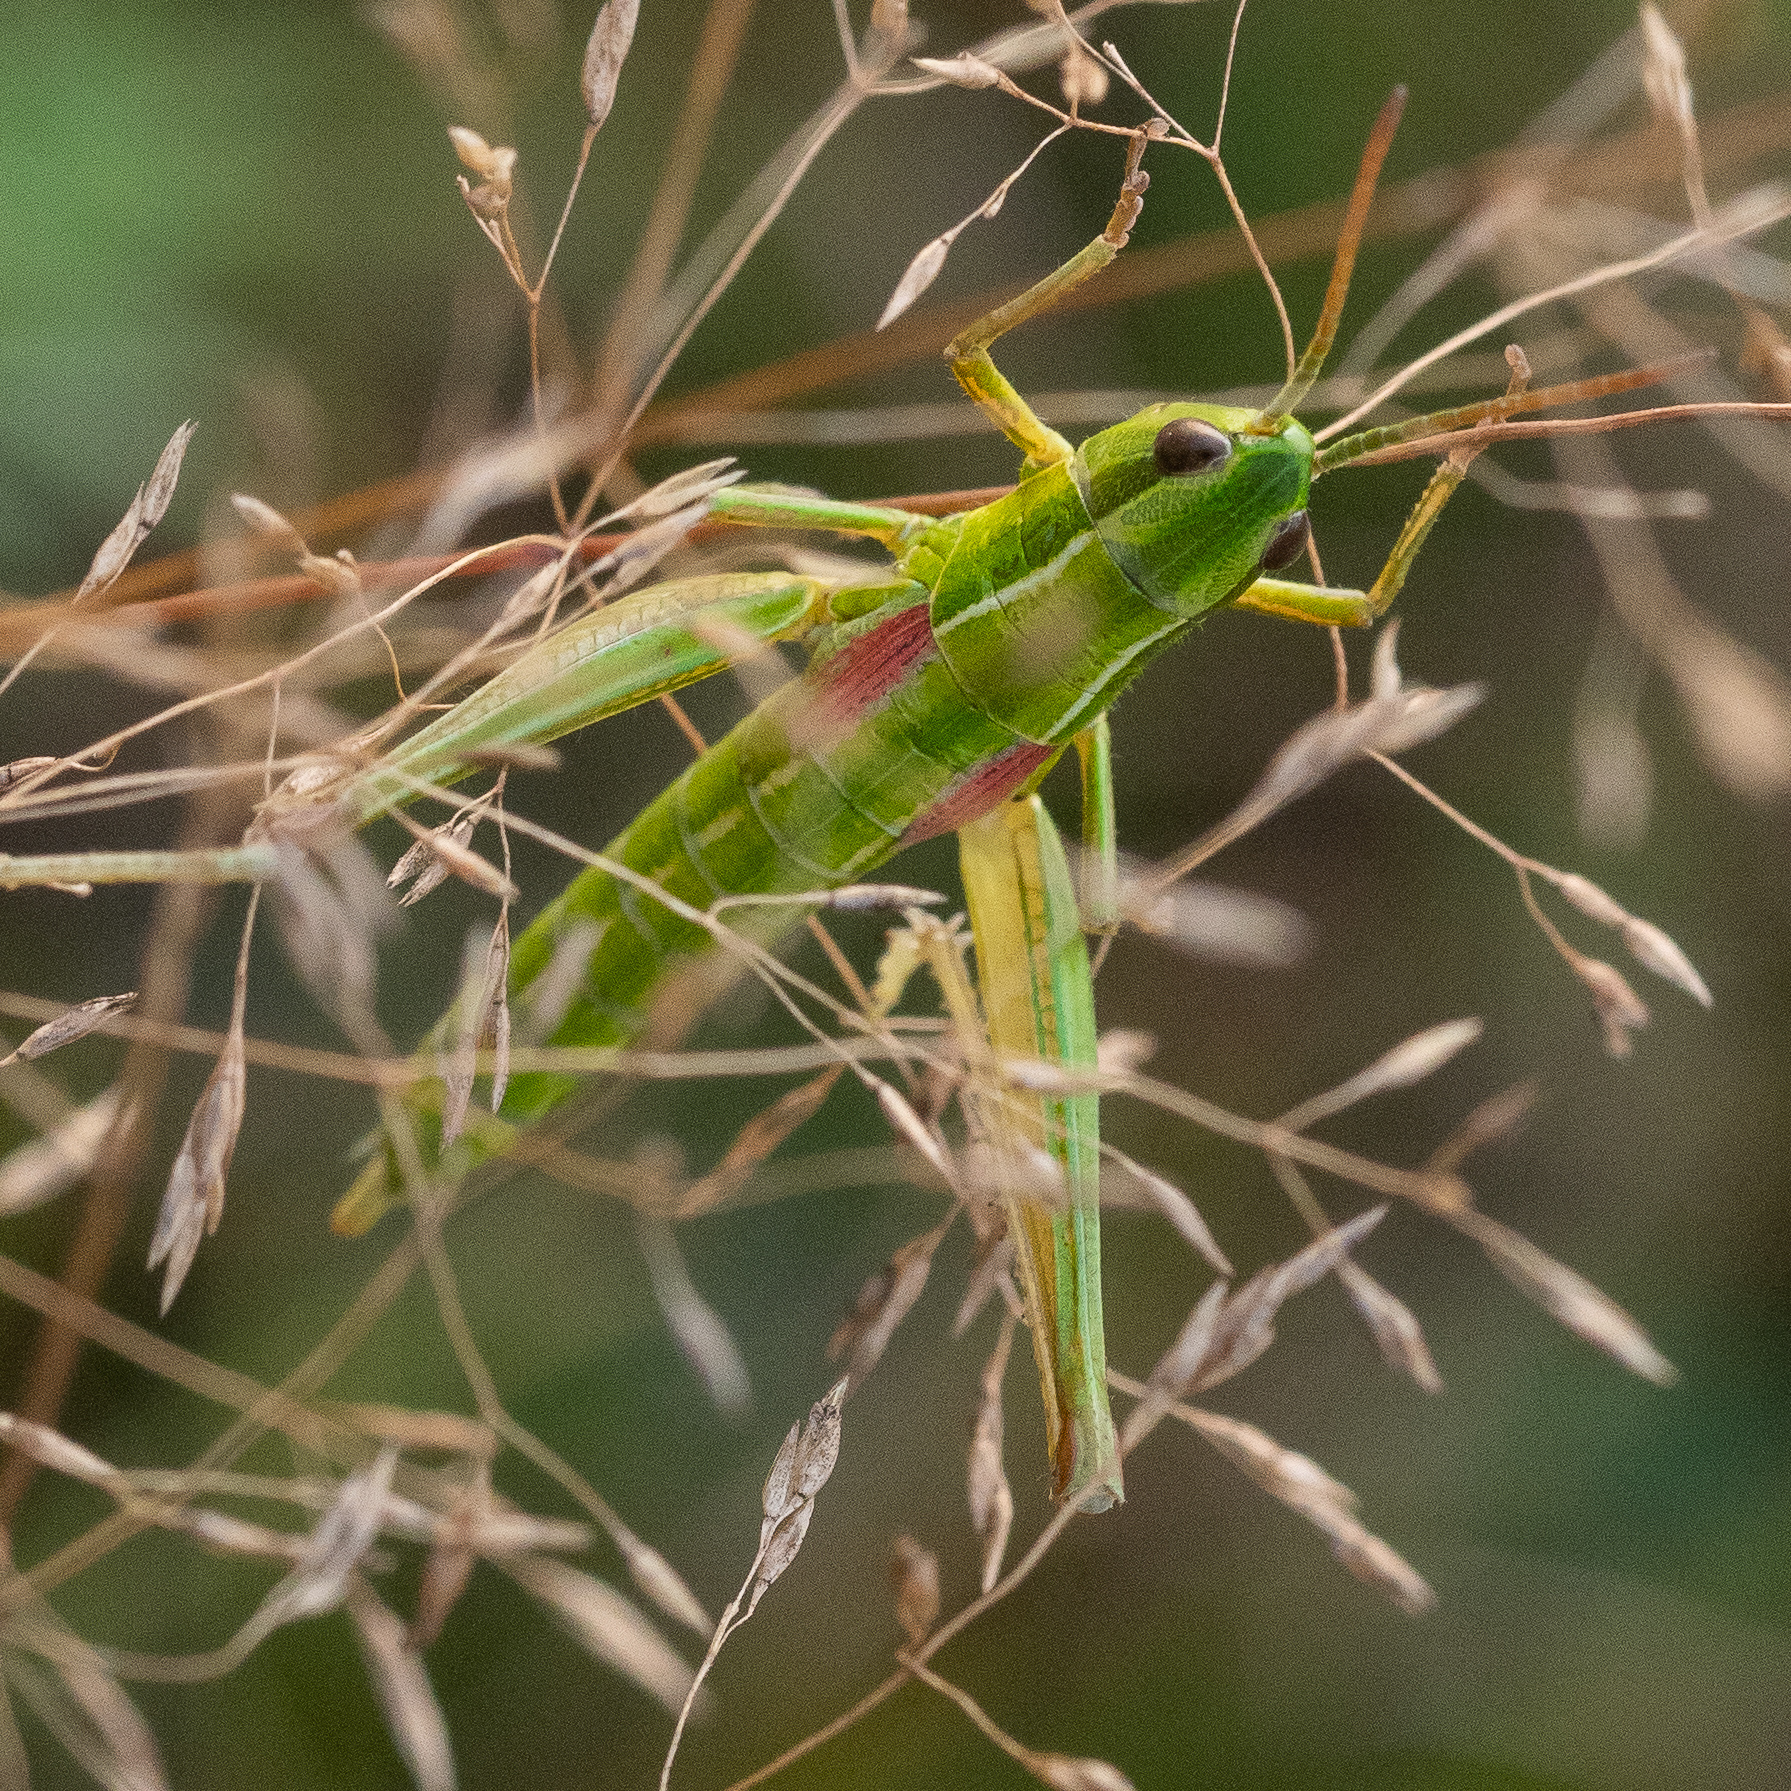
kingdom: Animalia
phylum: Arthropoda
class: Insecta
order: Orthoptera
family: Acrididae
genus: Euthystira
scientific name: Euthystira brachyptera
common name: Small gold grasshopper
